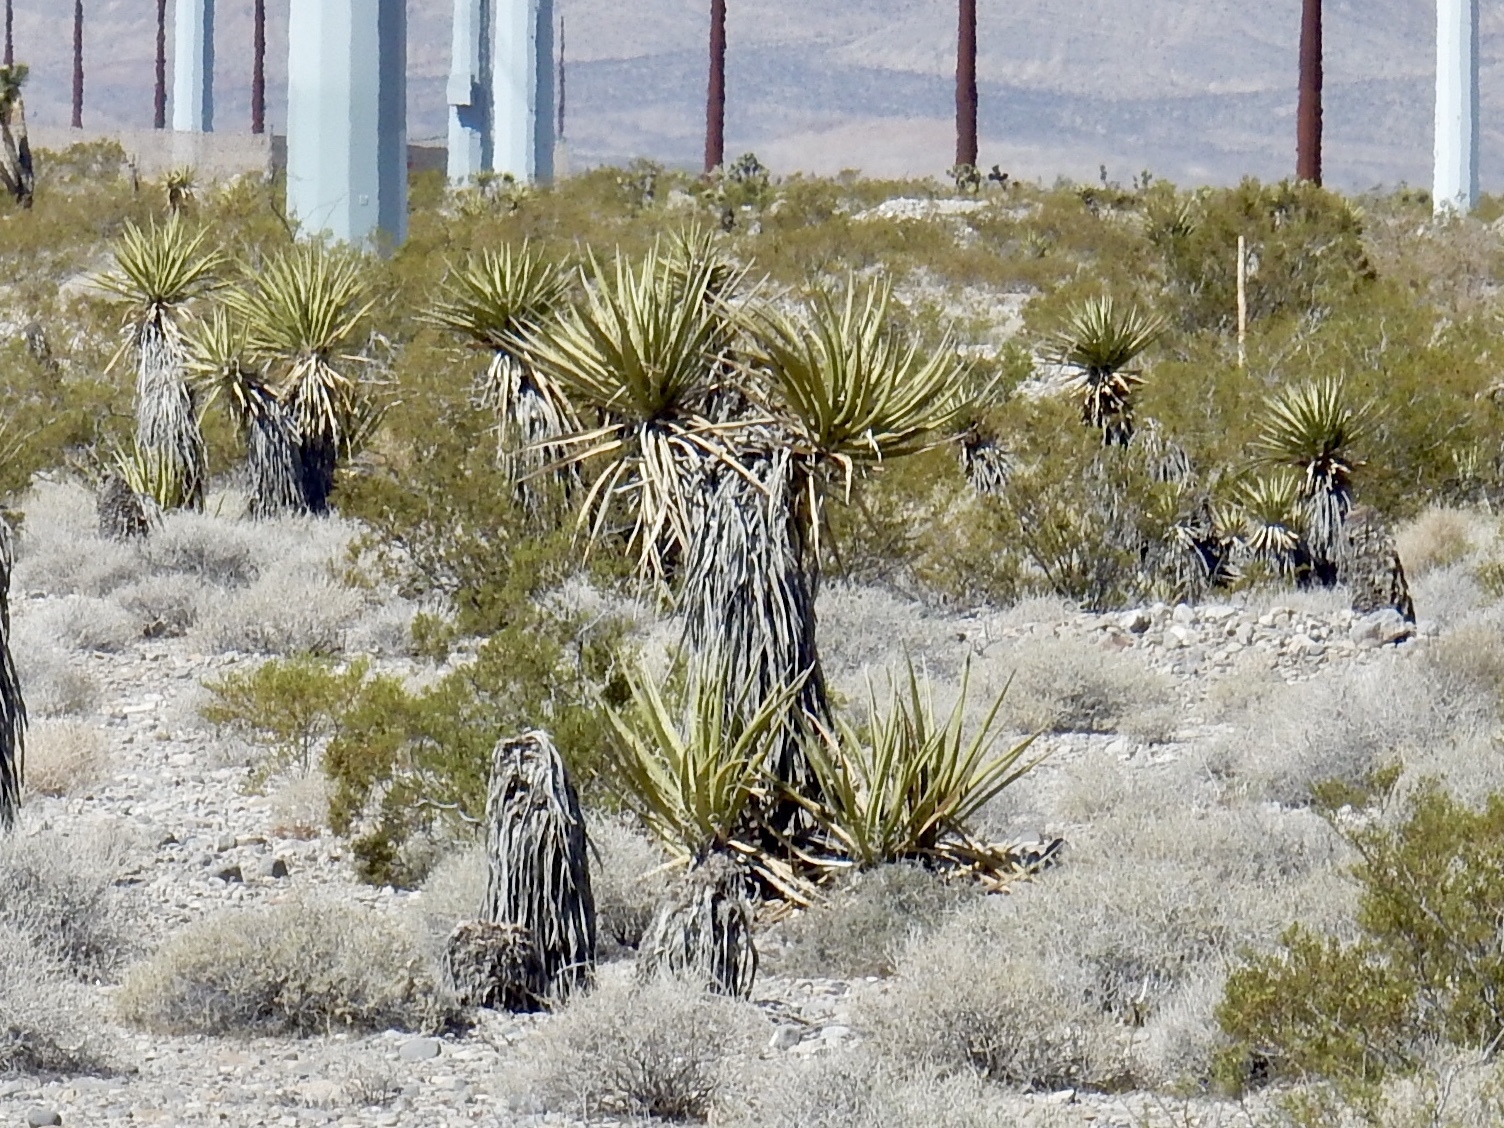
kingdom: Plantae
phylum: Tracheophyta
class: Liliopsida
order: Asparagales
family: Asparagaceae
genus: Yucca
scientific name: Yucca schidigera
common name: Mojave yucca
